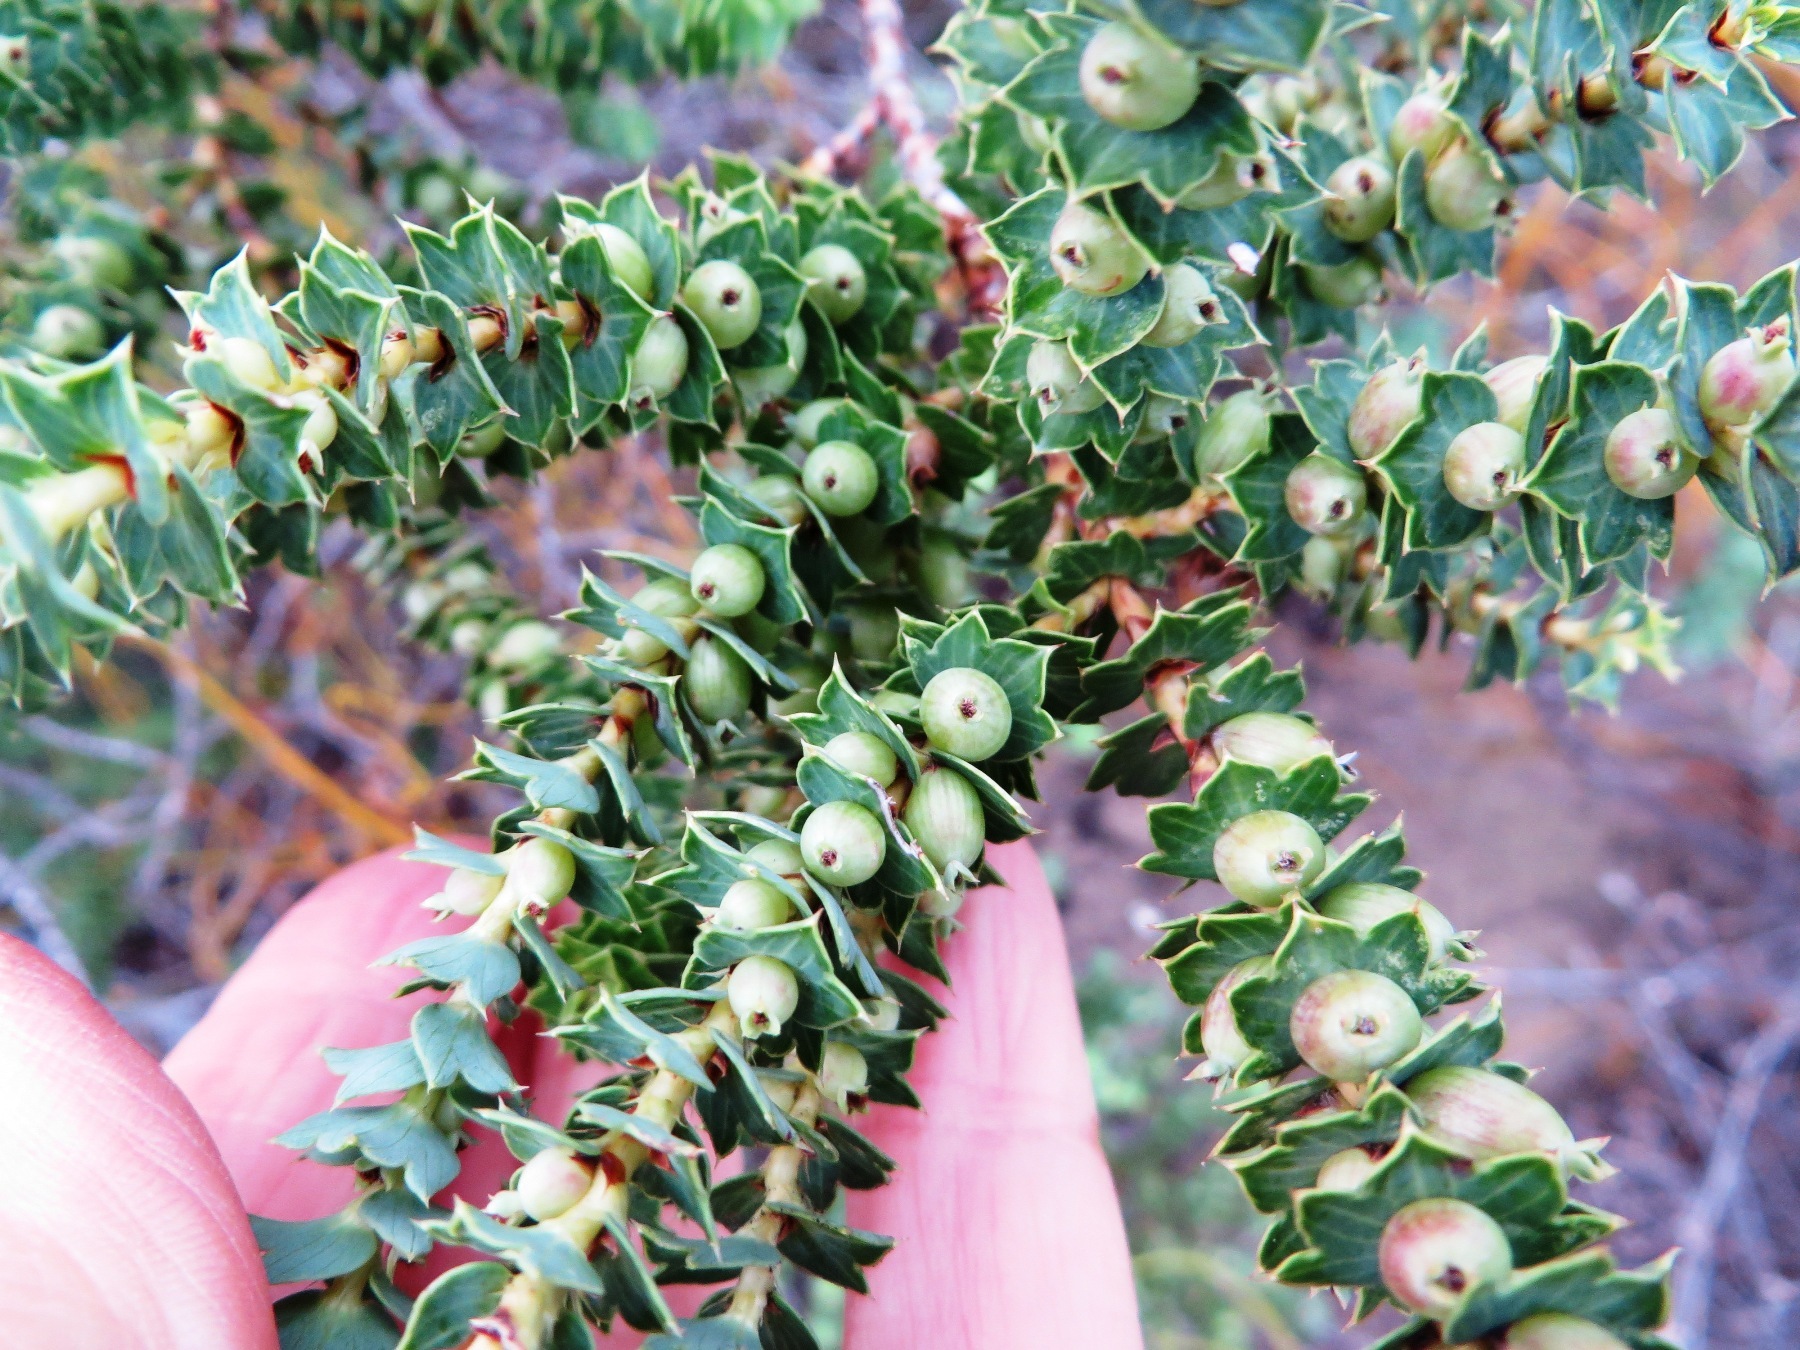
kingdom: Plantae
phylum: Tracheophyta
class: Magnoliopsida
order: Rosales
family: Rosaceae
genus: Cliffortia
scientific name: Cliffortia schlechteri
